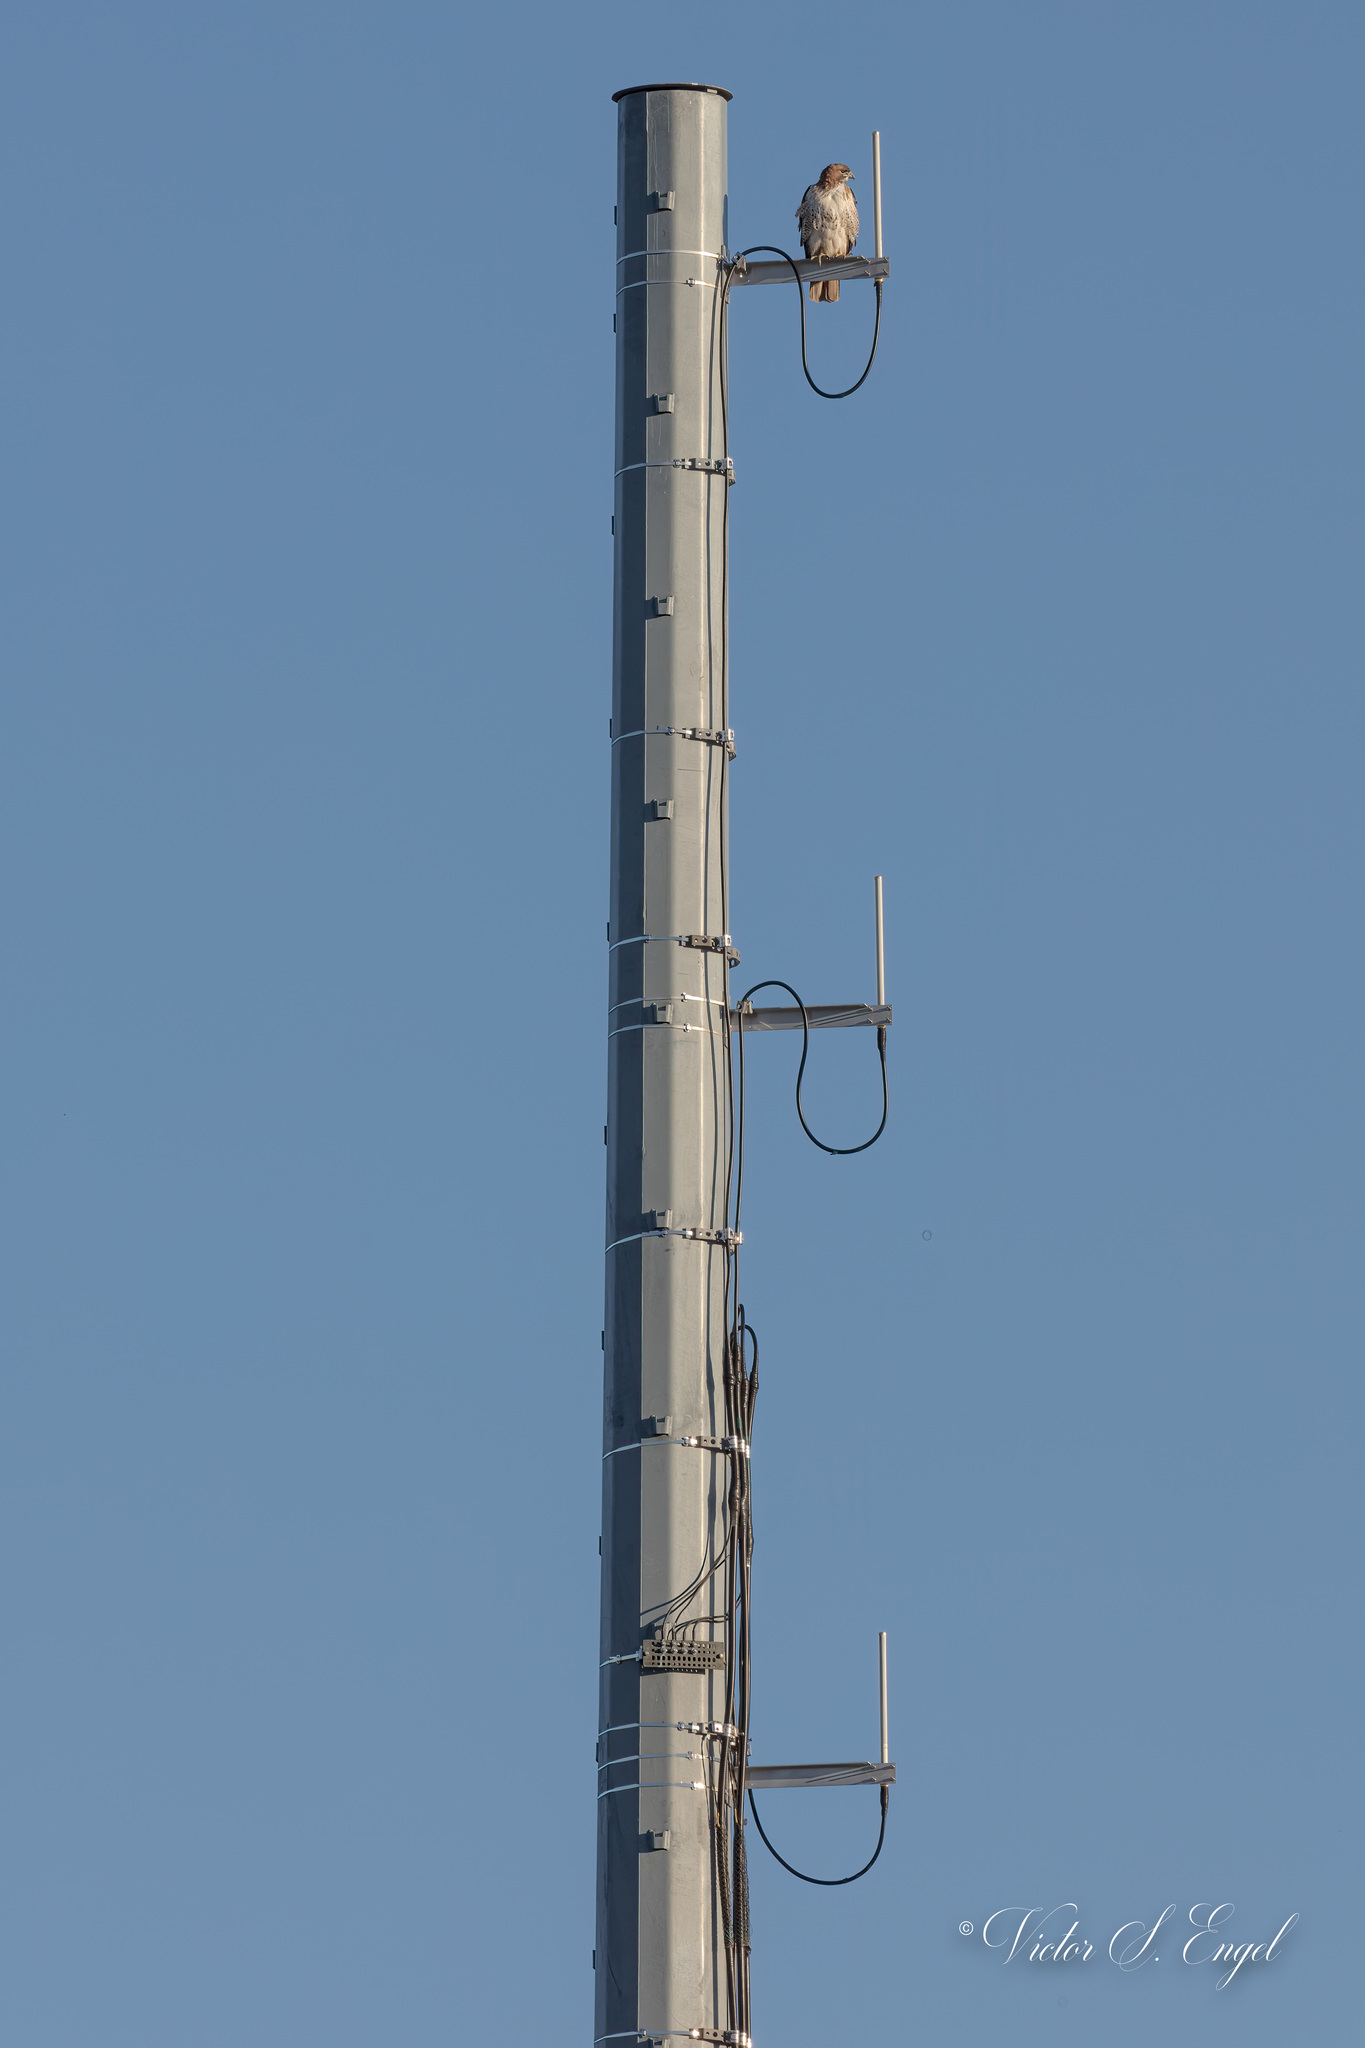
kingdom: Animalia
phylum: Chordata
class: Aves
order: Accipitriformes
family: Accipitridae
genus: Buteo
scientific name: Buteo jamaicensis
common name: Red-tailed hawk
